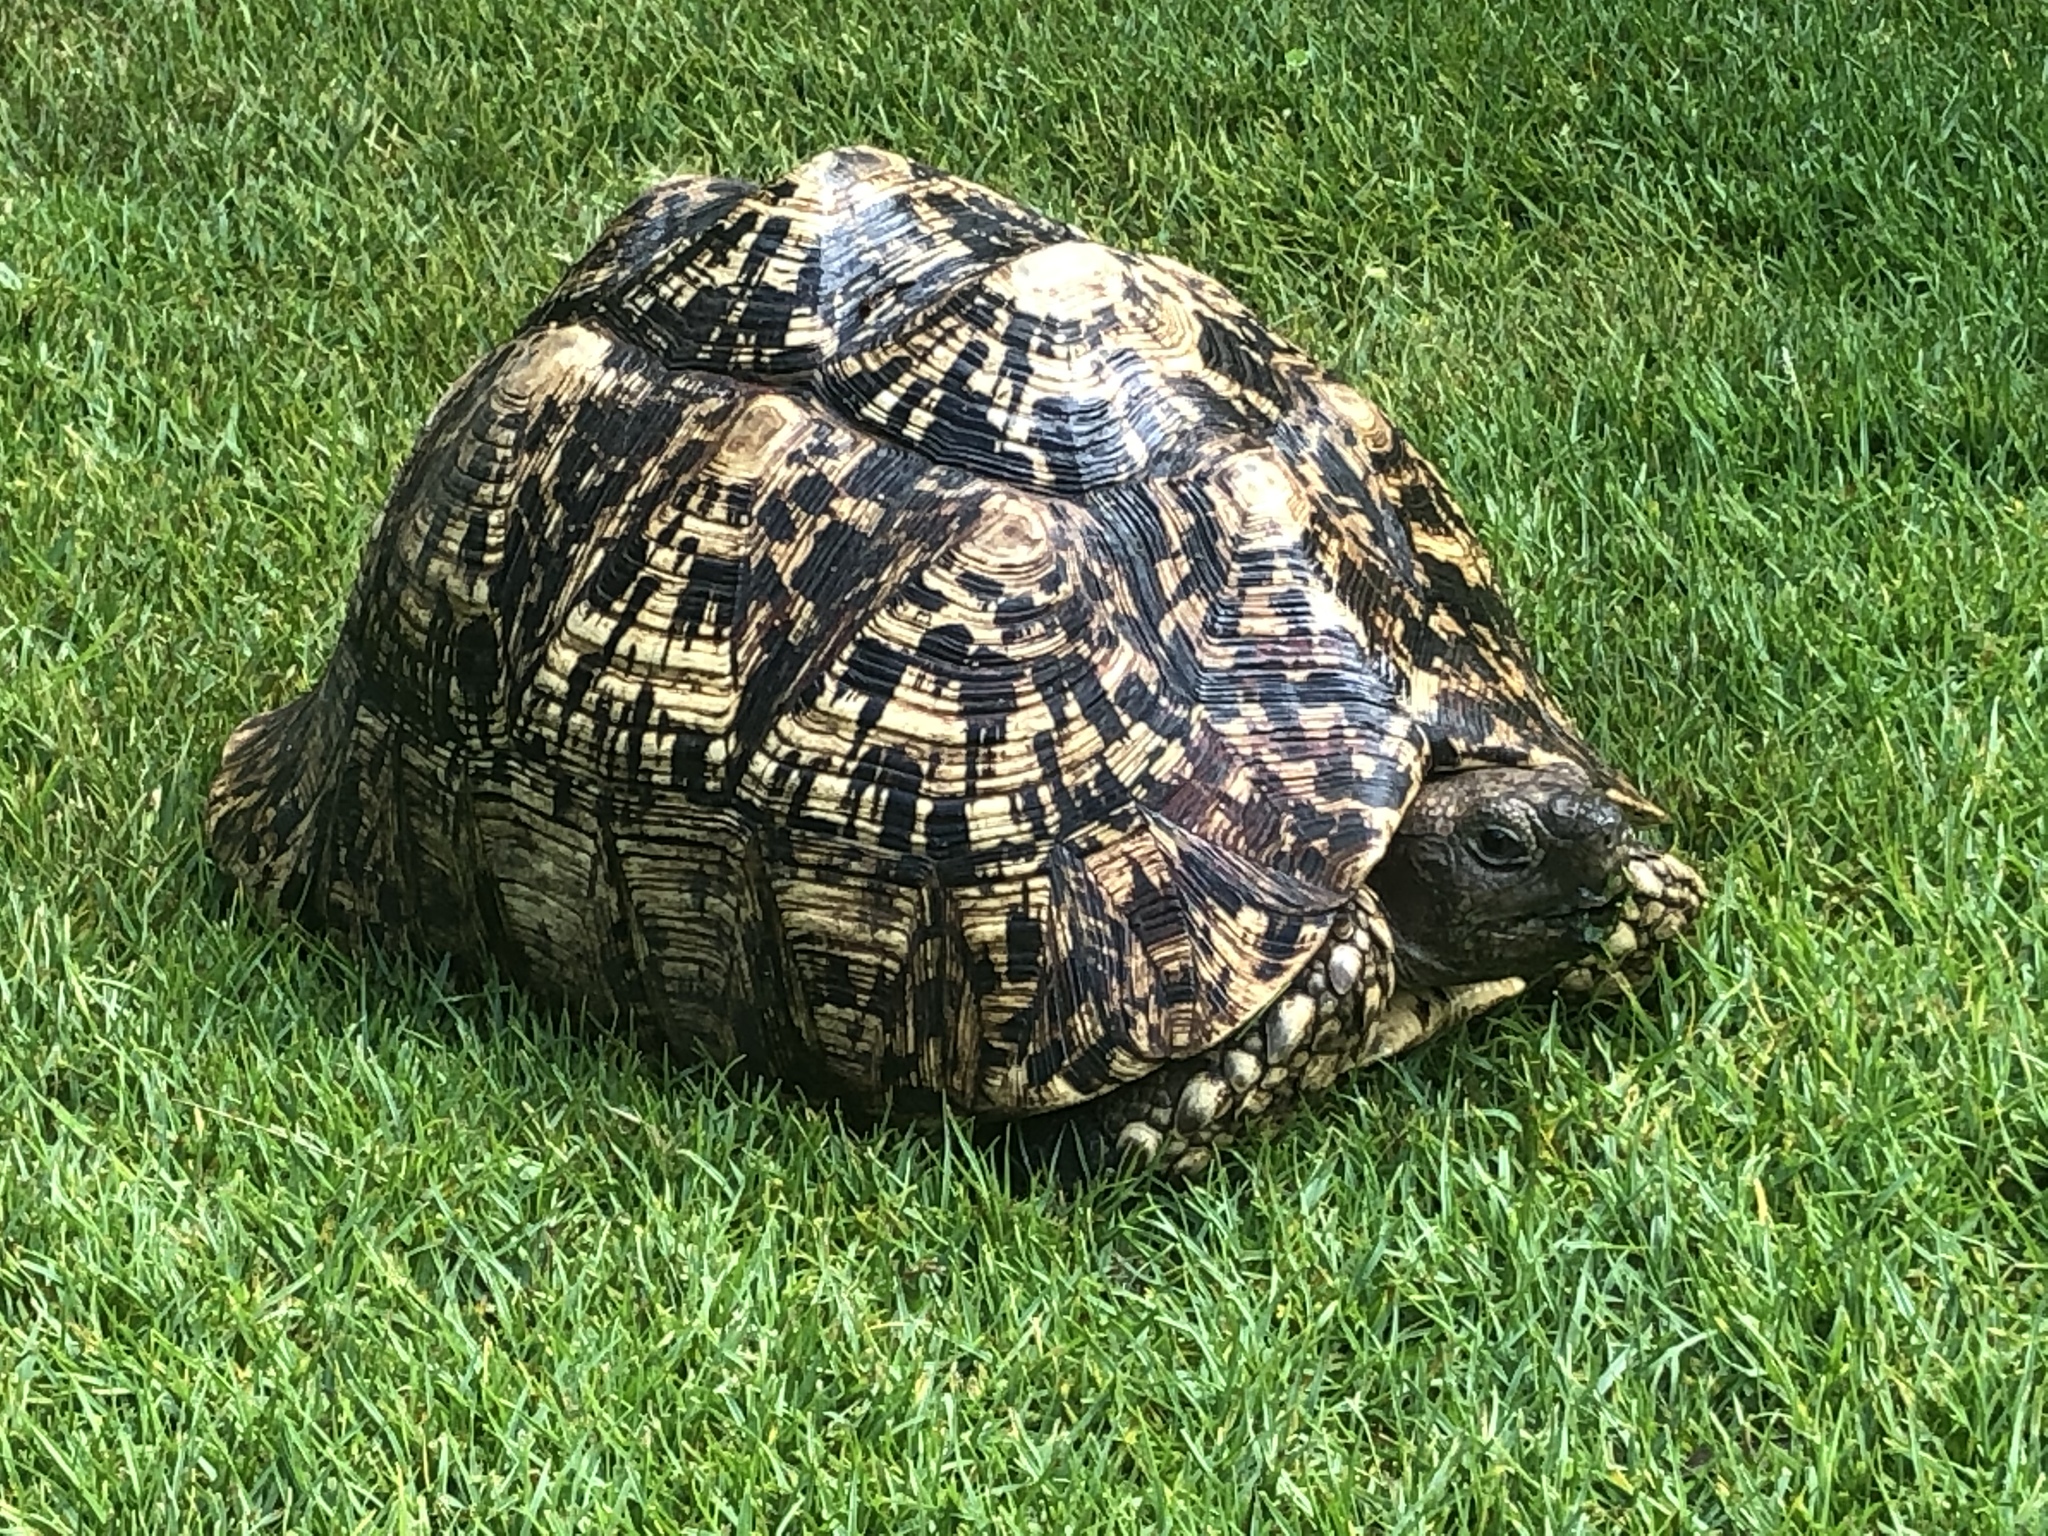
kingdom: Animalia
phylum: Chordata
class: Testudines
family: Testudinidae
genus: Stigmochelys
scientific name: Stigmochelys pardalis
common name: Leopard tortoise
